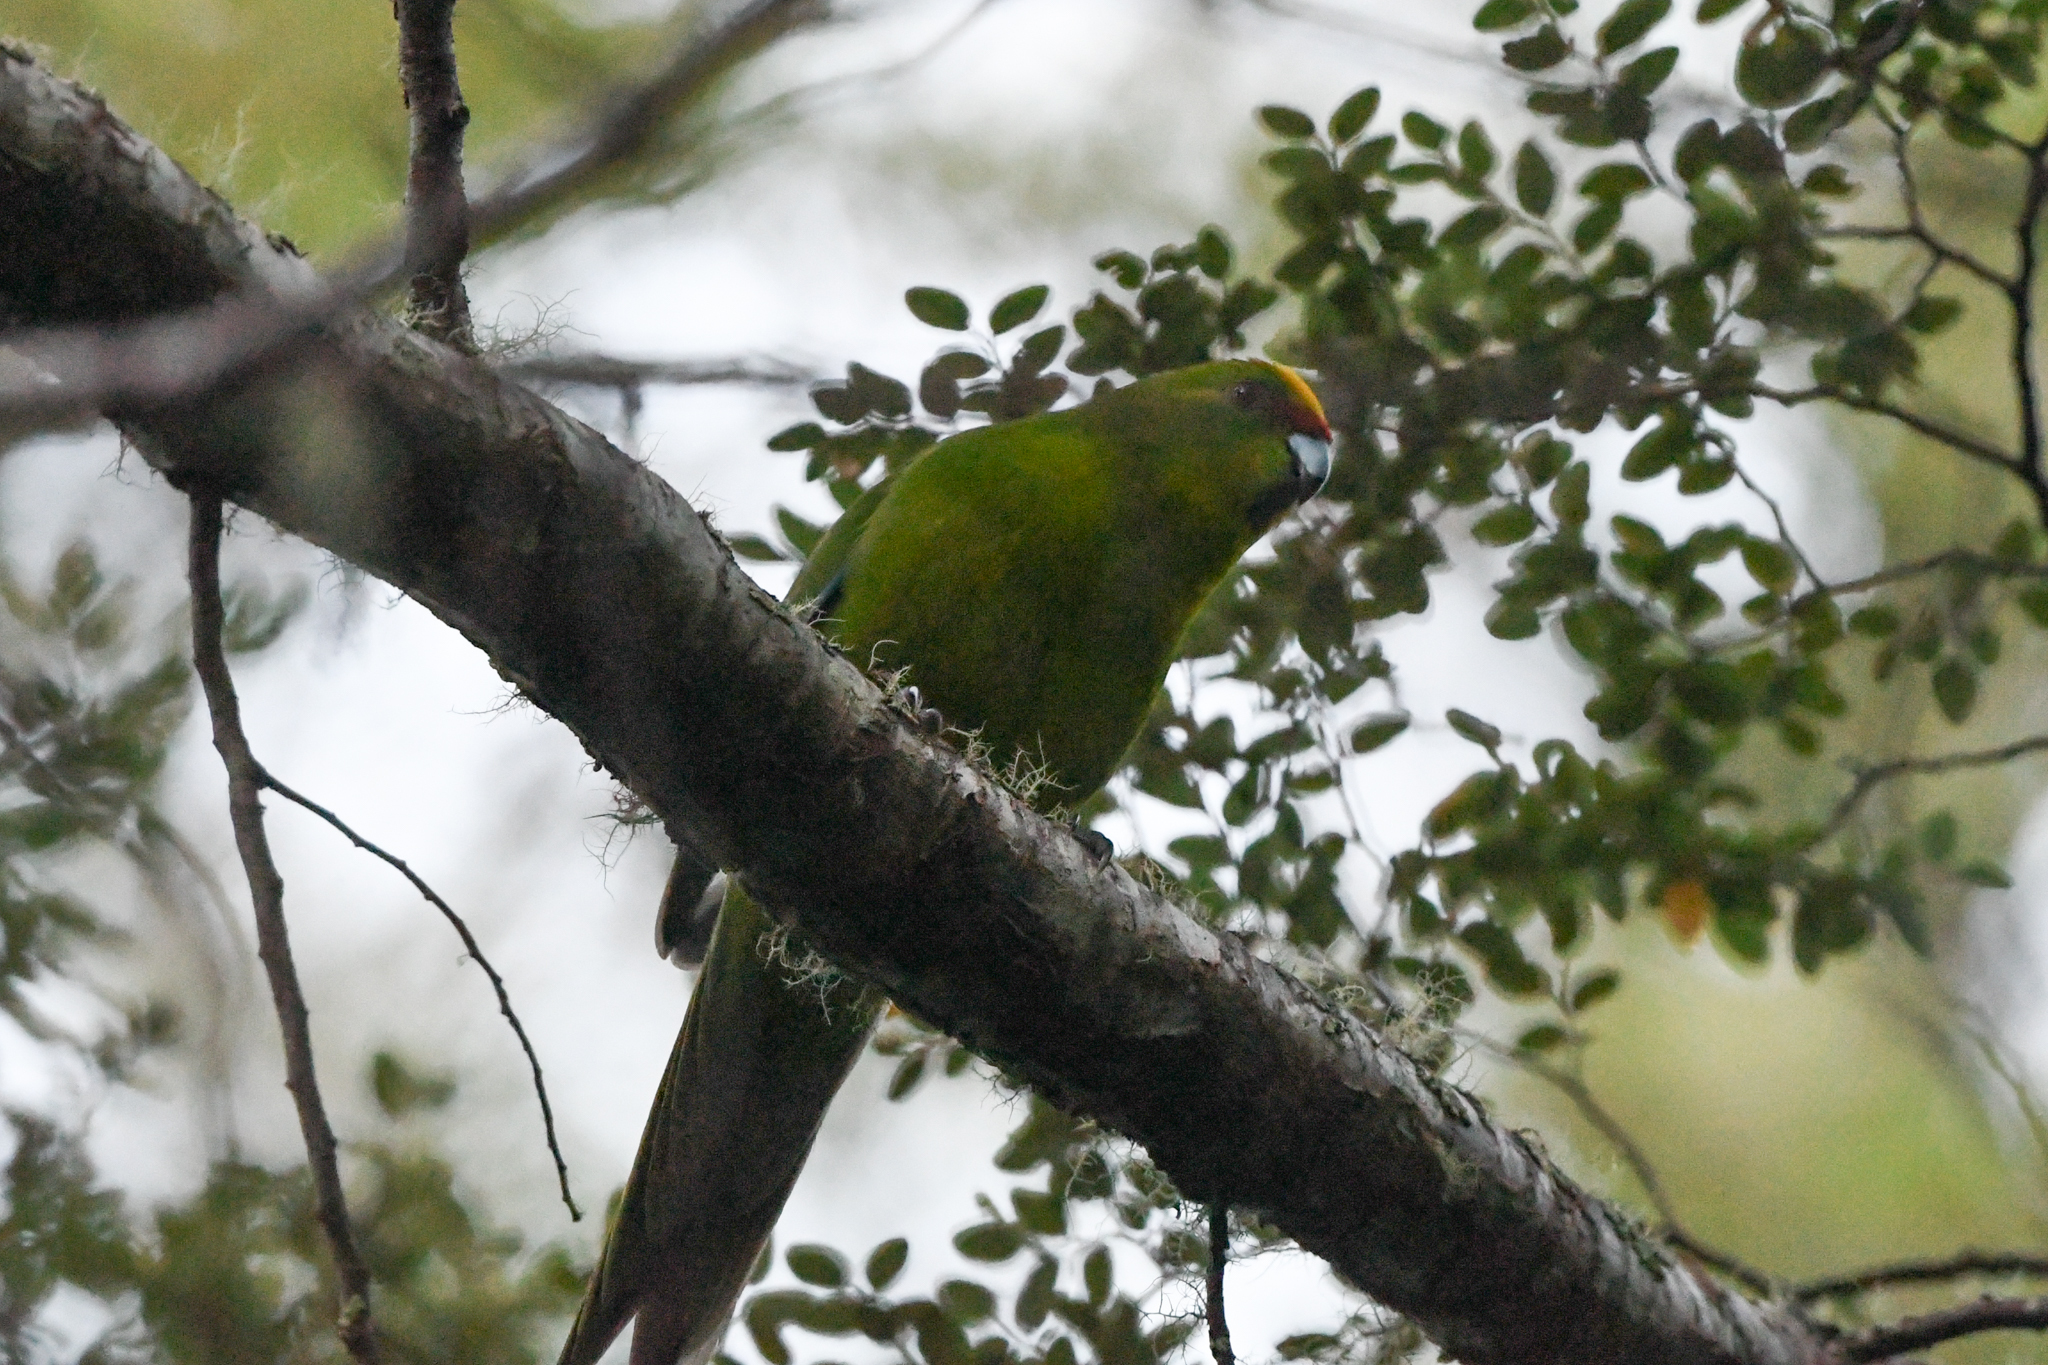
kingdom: Animalia
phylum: Chordata
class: Aves
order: Psittaciformes
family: Psittacidae
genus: Cyanoramphus
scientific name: Cyanoramphus auriceps
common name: Yellow-crowned parakeet
